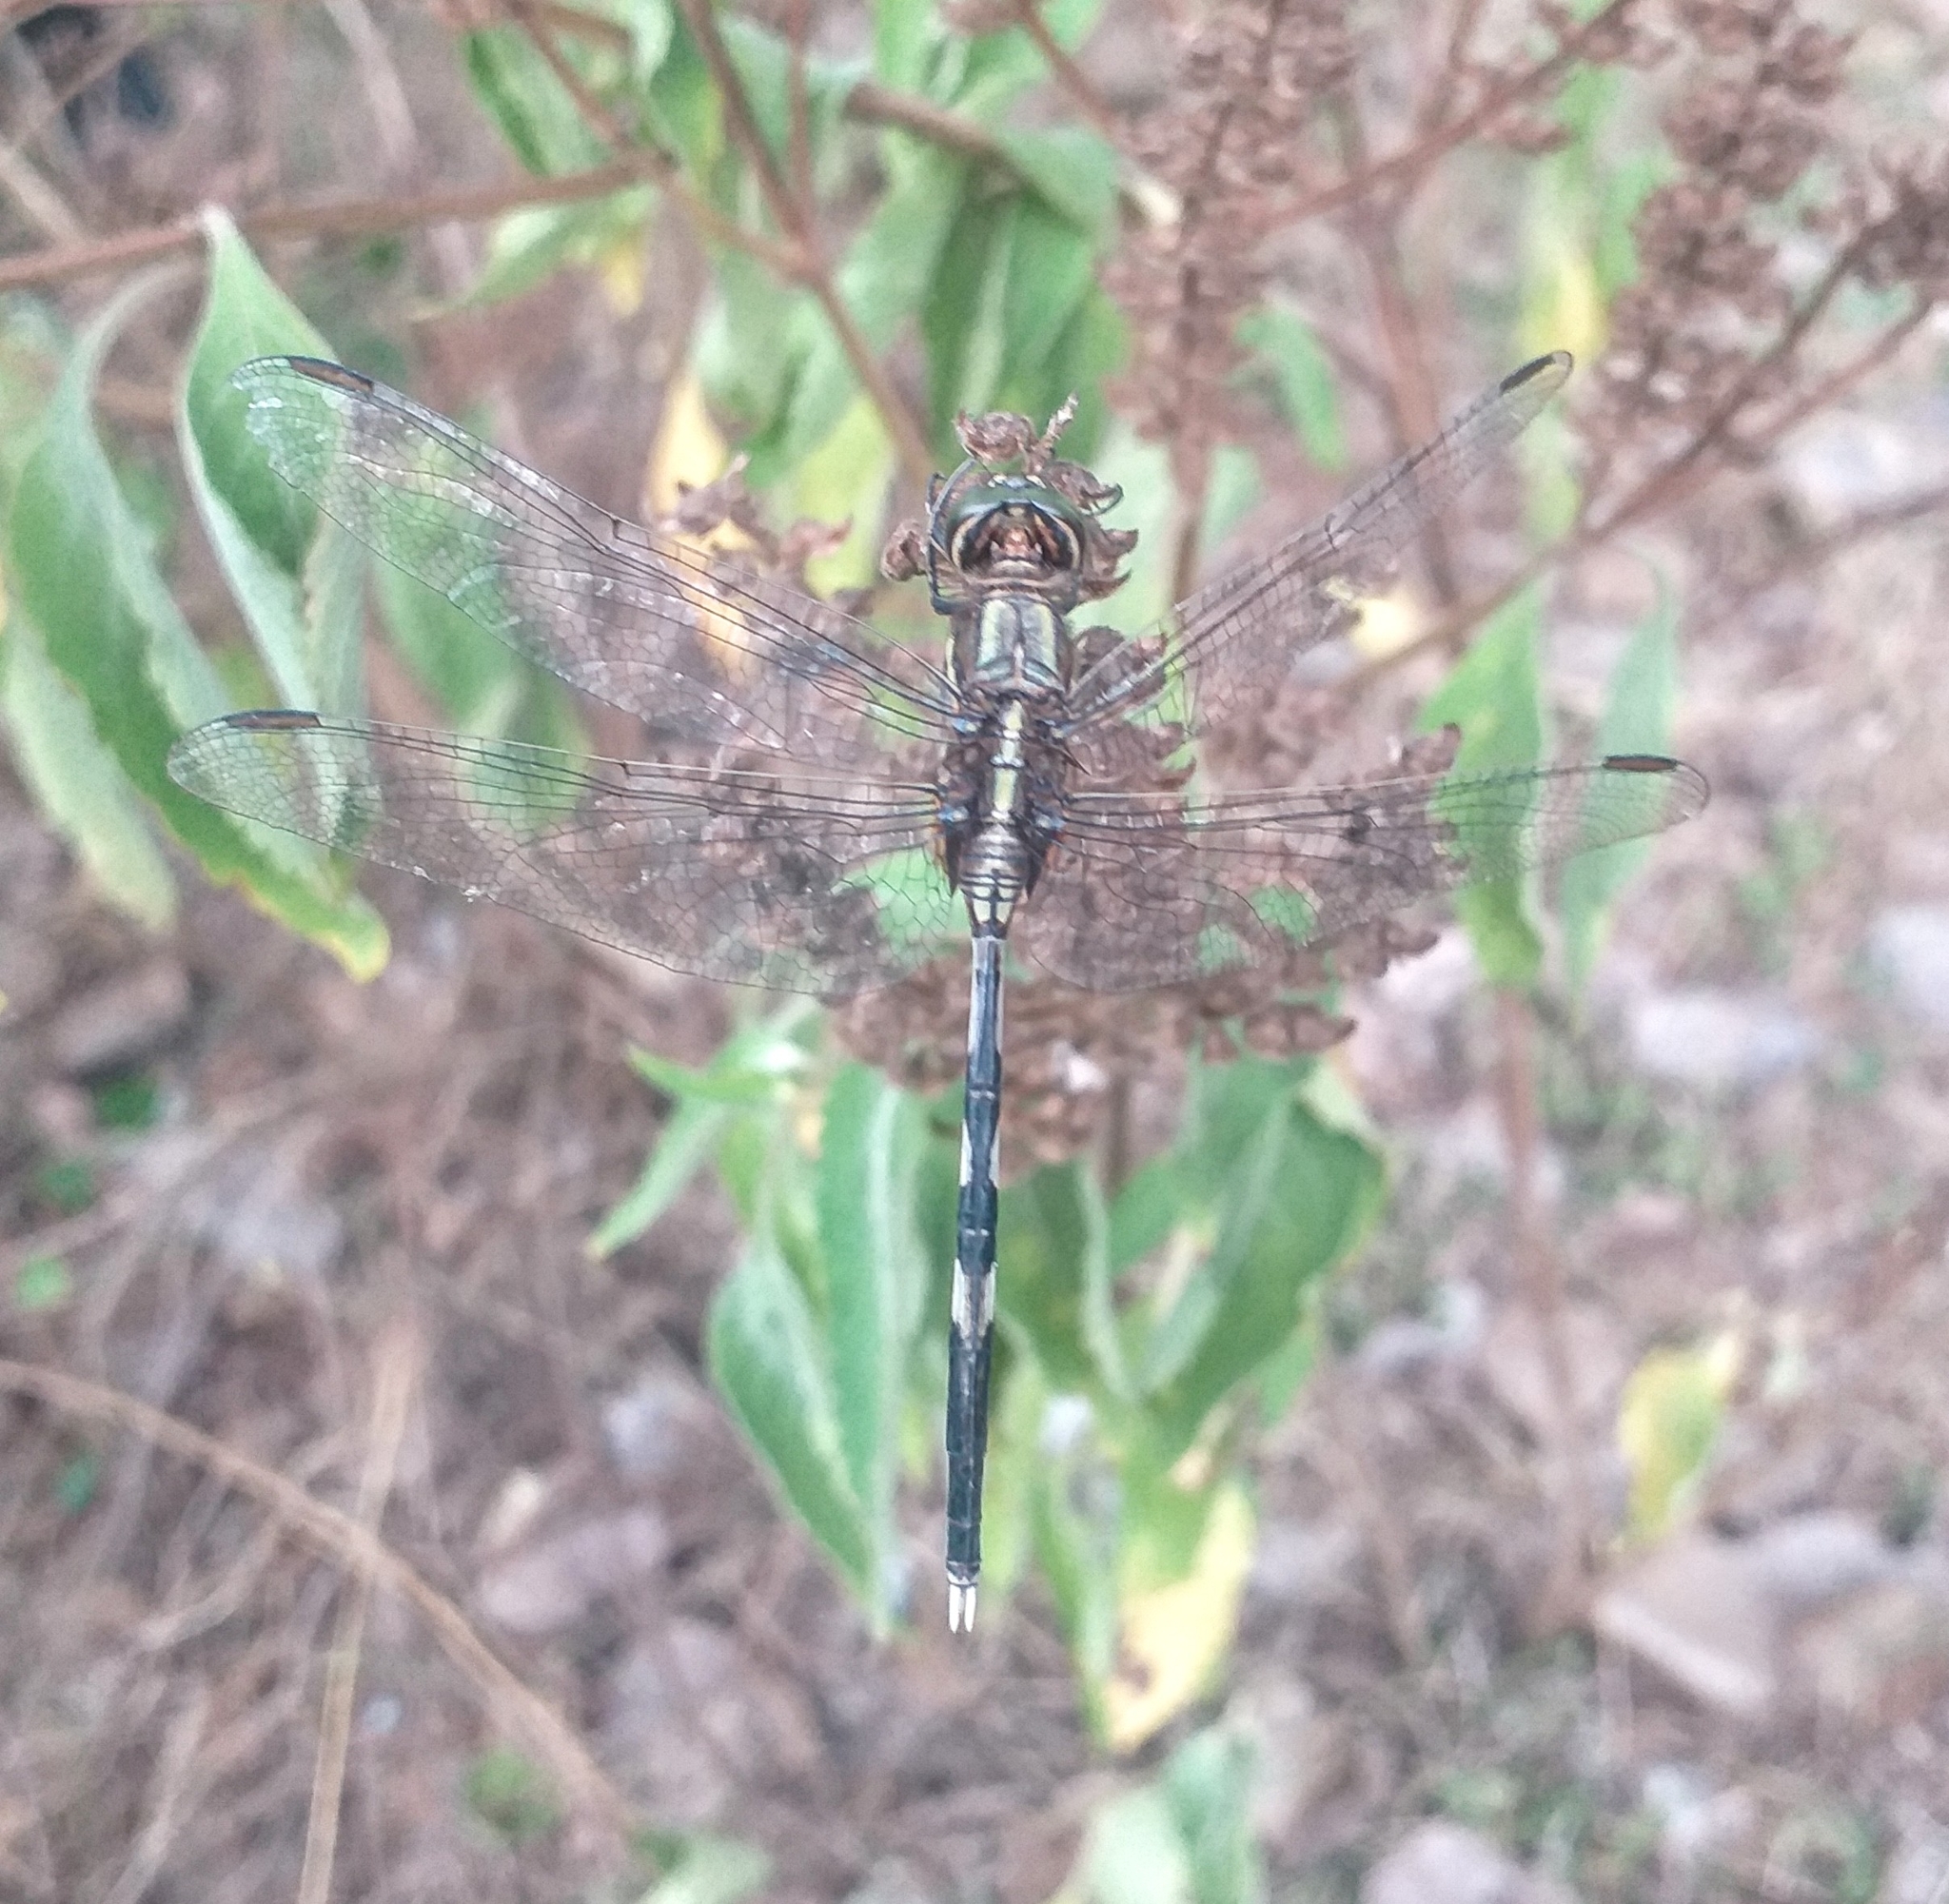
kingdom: Animalia
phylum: Arthropoda
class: Insecta
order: Odonata
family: Libellulidae
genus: Orthetrum
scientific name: Orthetrum sabina
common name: Slender skimmer
